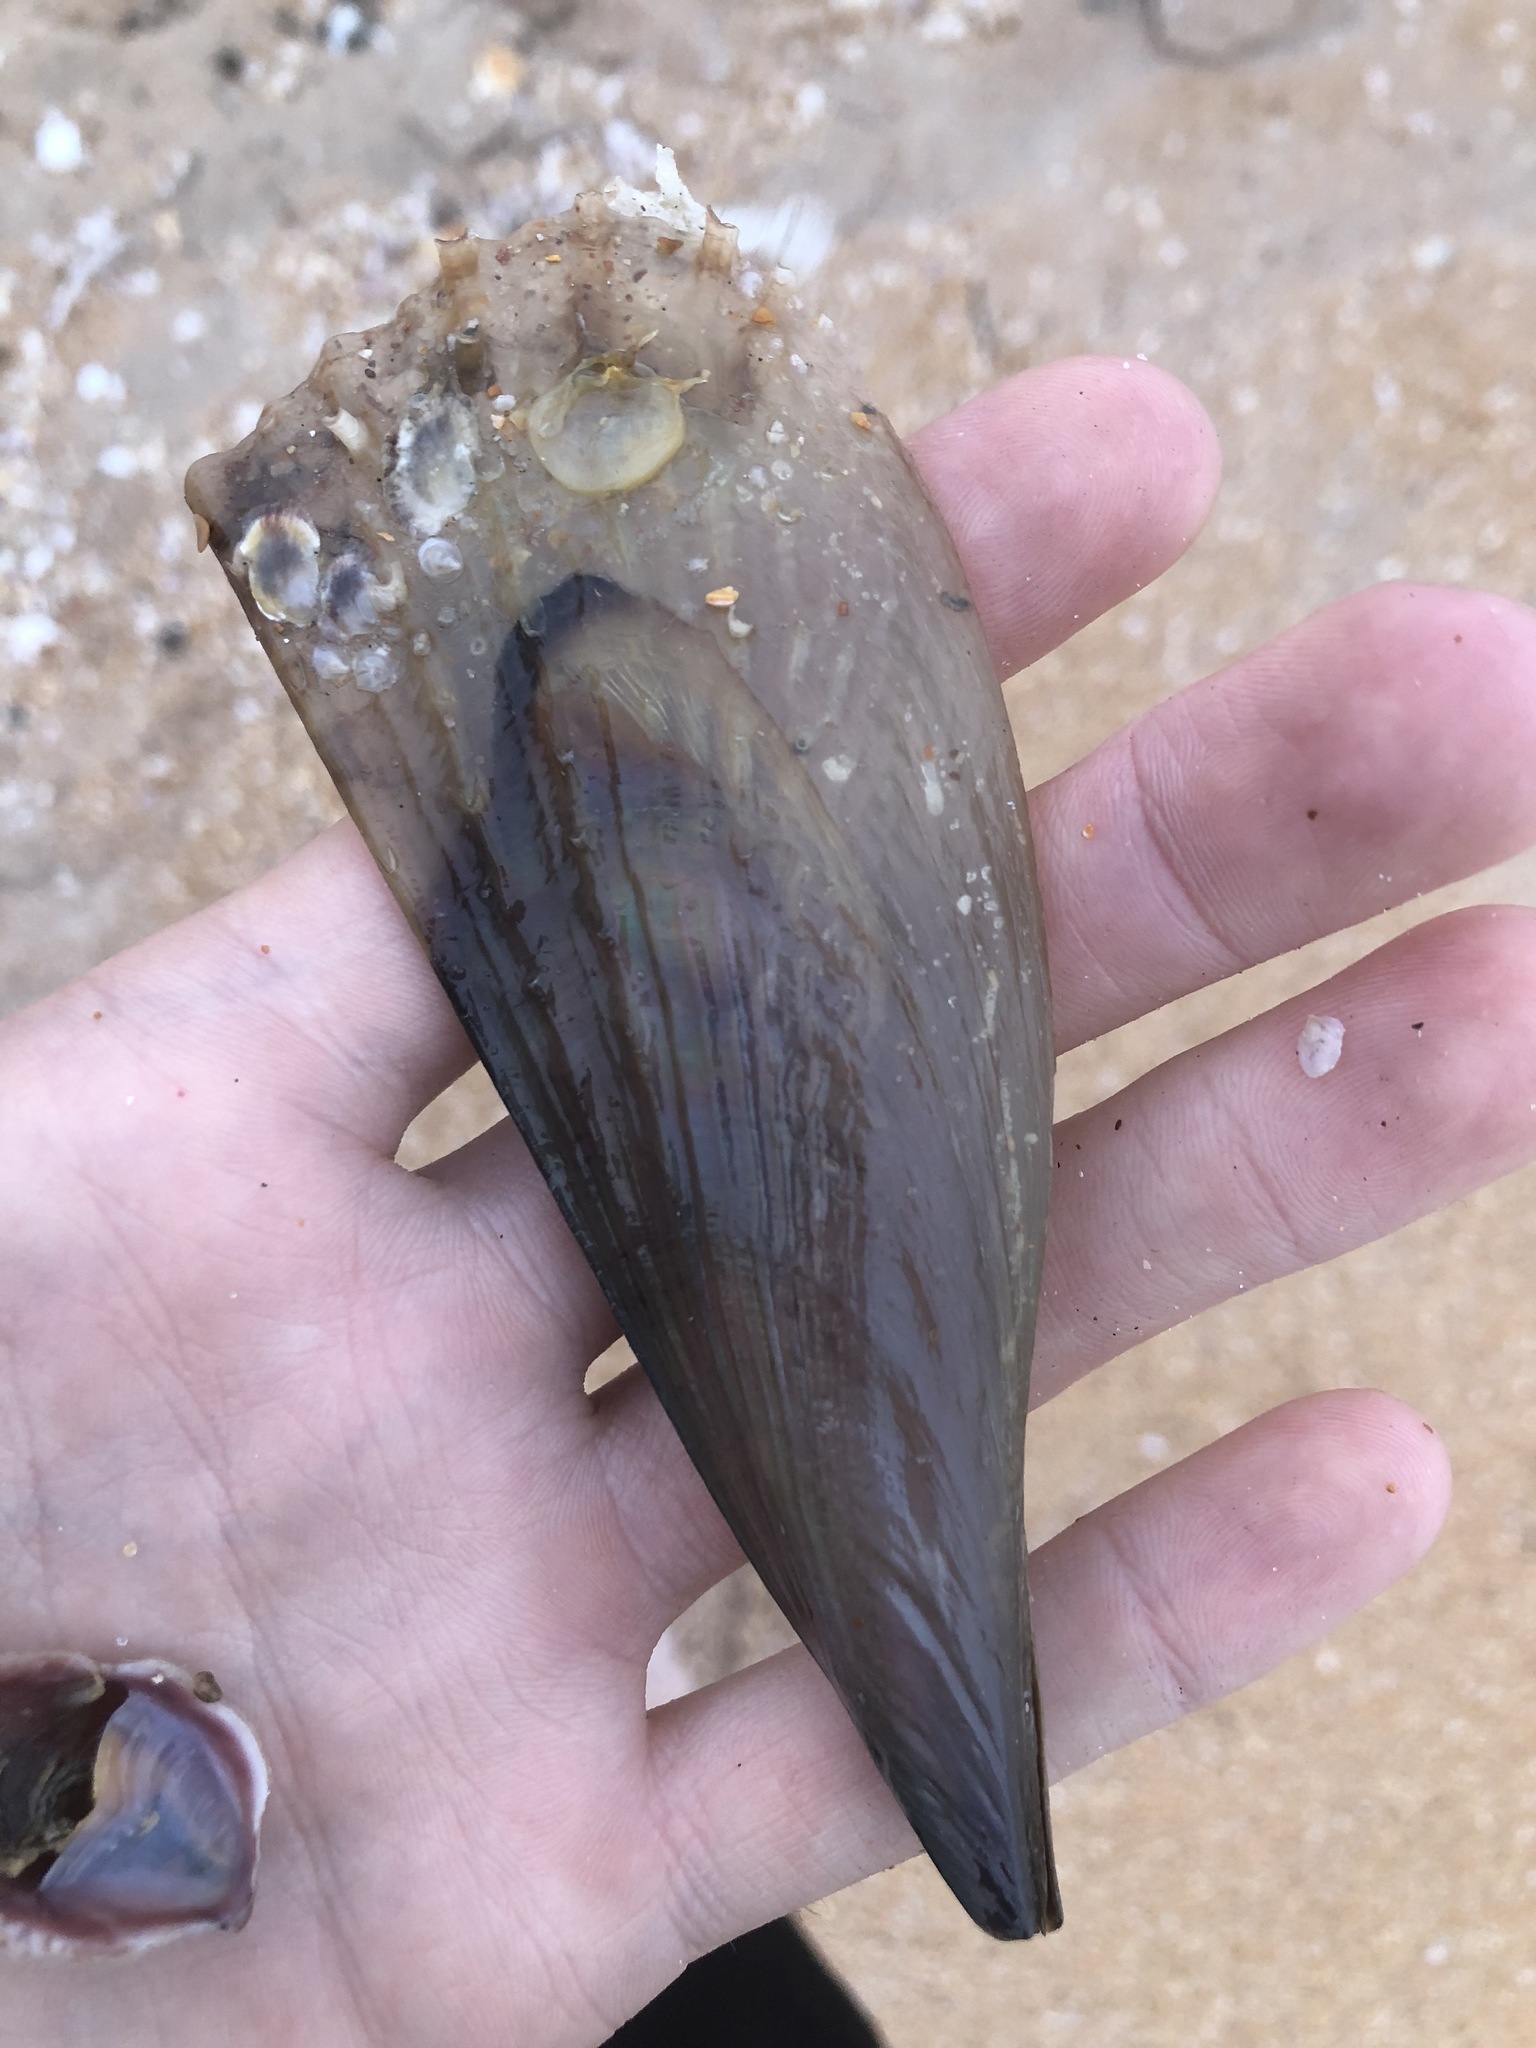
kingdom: Animalia
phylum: Mollusca
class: Bivalvia
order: Ostreida
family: Pinnidae
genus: Atrina
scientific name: Atrina seminuda
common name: Half-naked penshell
